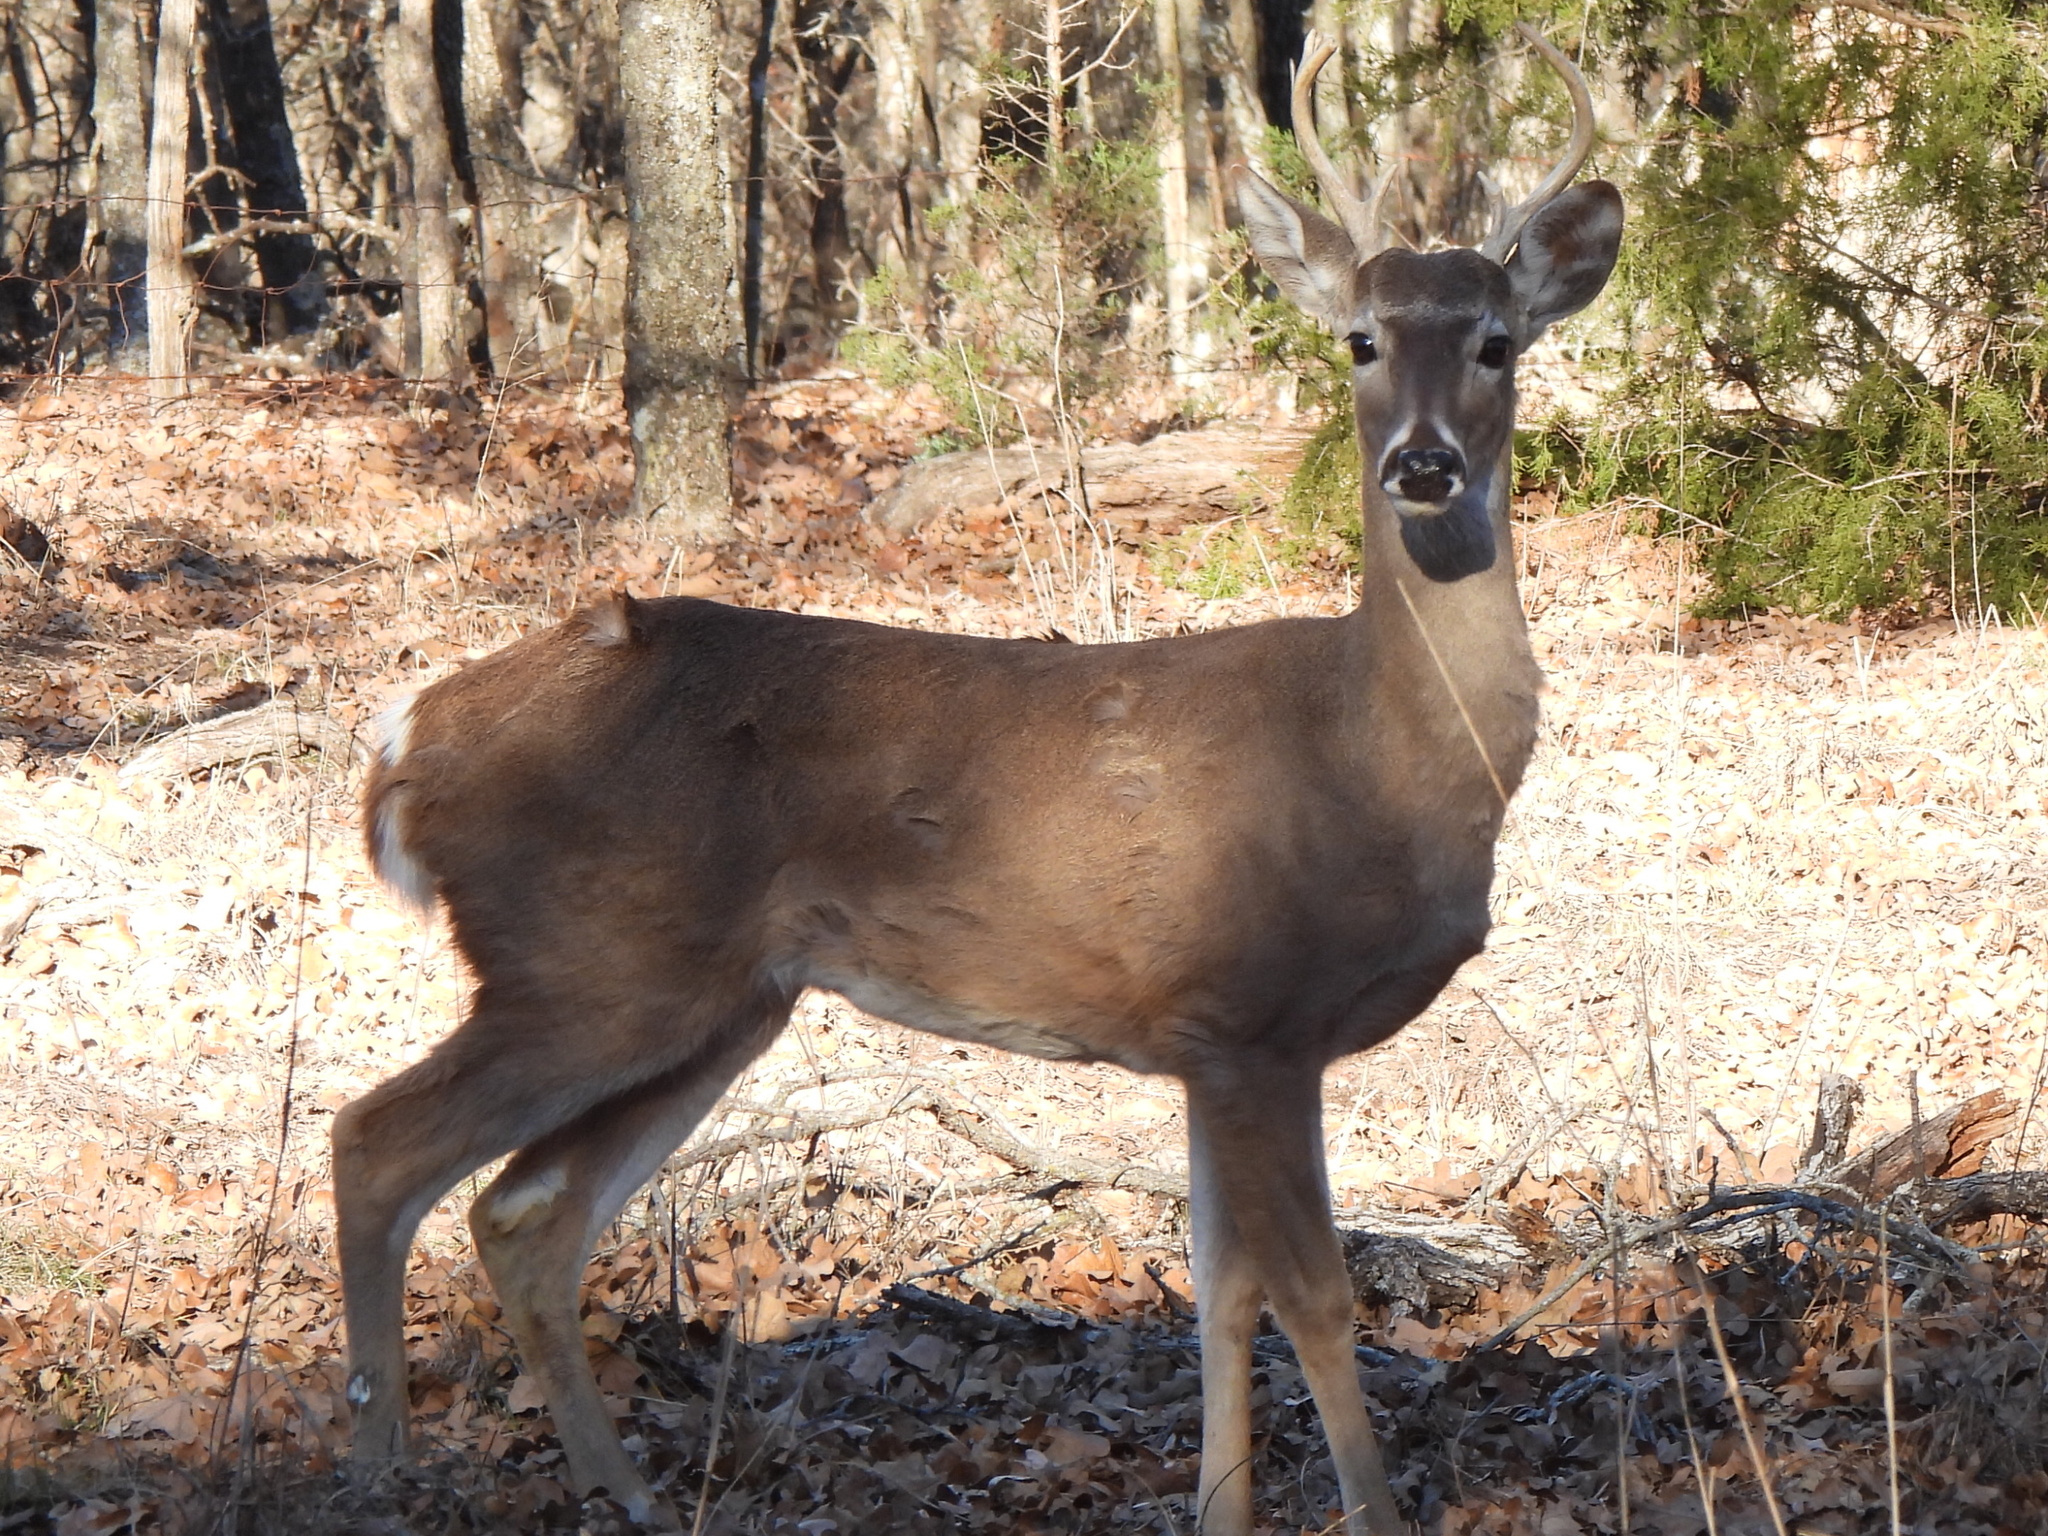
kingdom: Animalia
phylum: Chordata
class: Mammalia
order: Artiodactyla
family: Cervidae
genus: Odocoileus
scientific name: Odocoileus virginianus
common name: White-tailed deer
